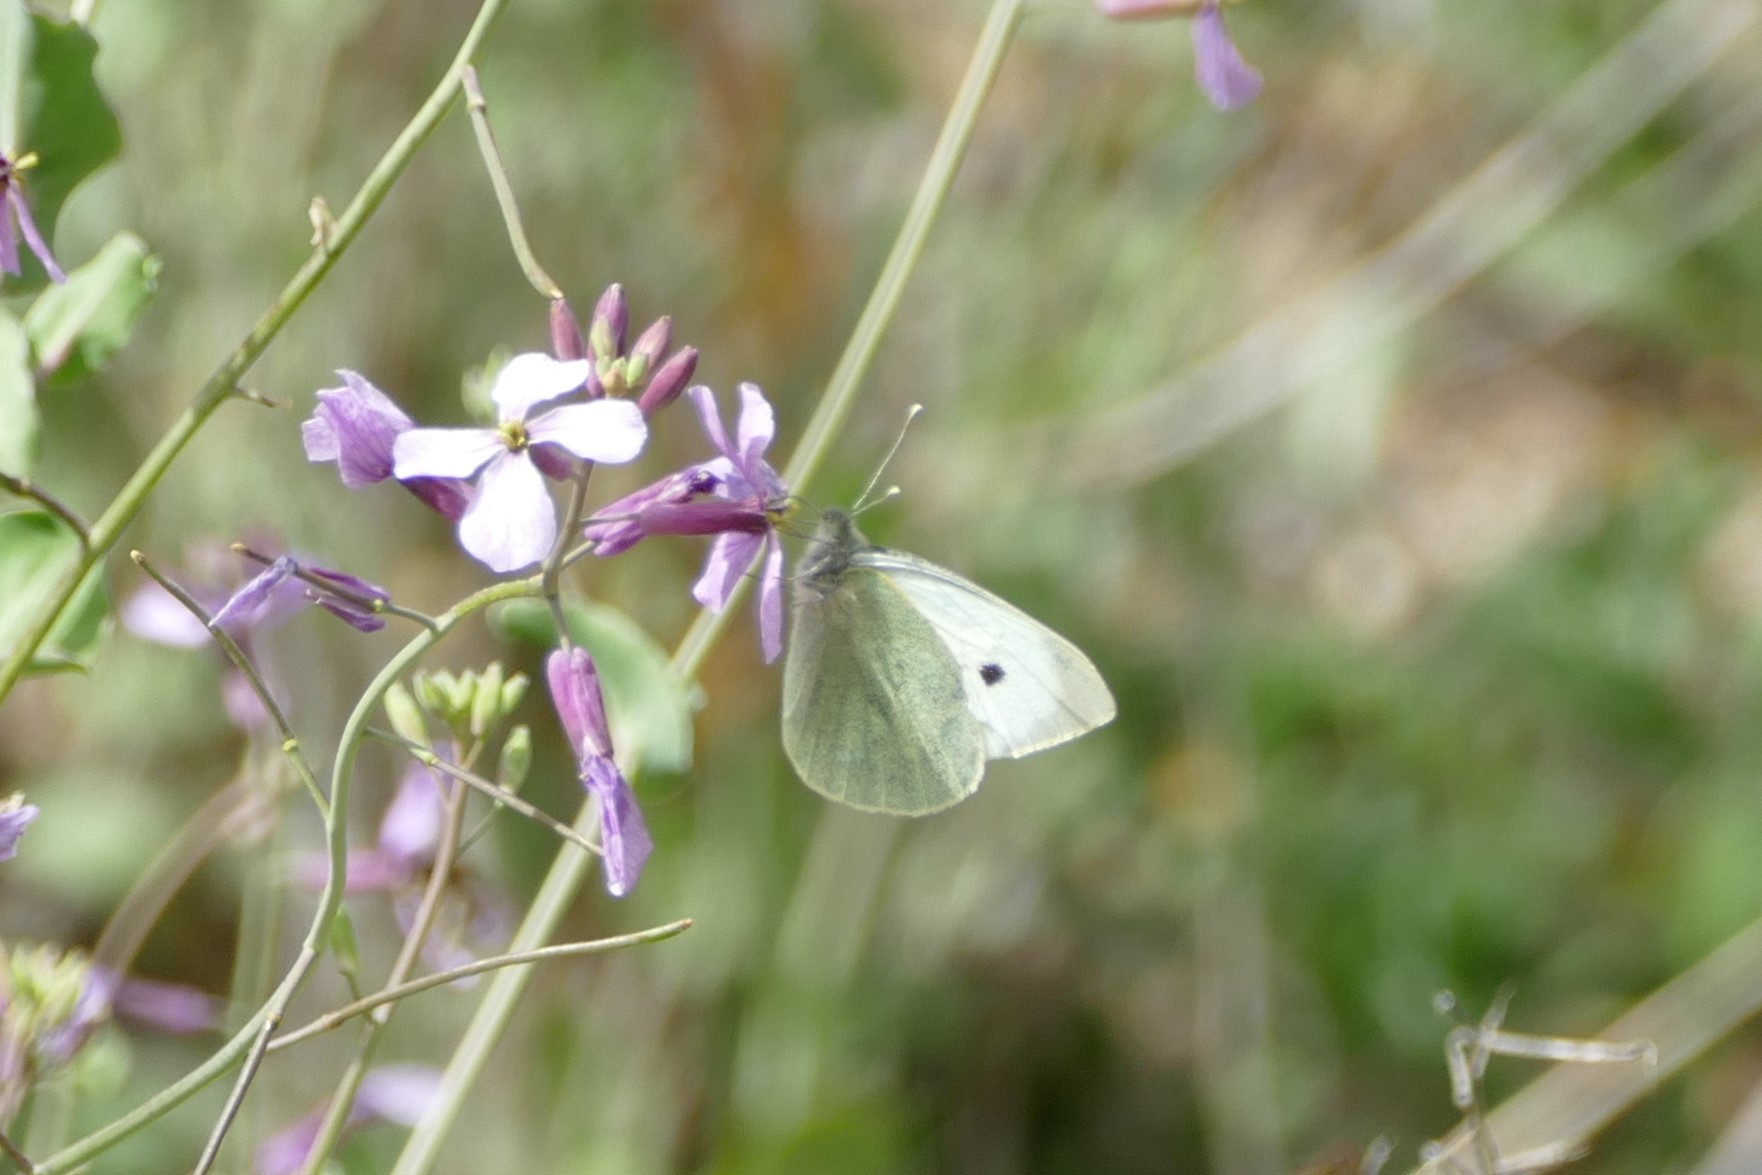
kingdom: Animalia
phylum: Arthropoda
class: Insecta
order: Lepidoptera
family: Pieridae
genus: Pieris
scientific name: Pieris brassicae
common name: Large white
